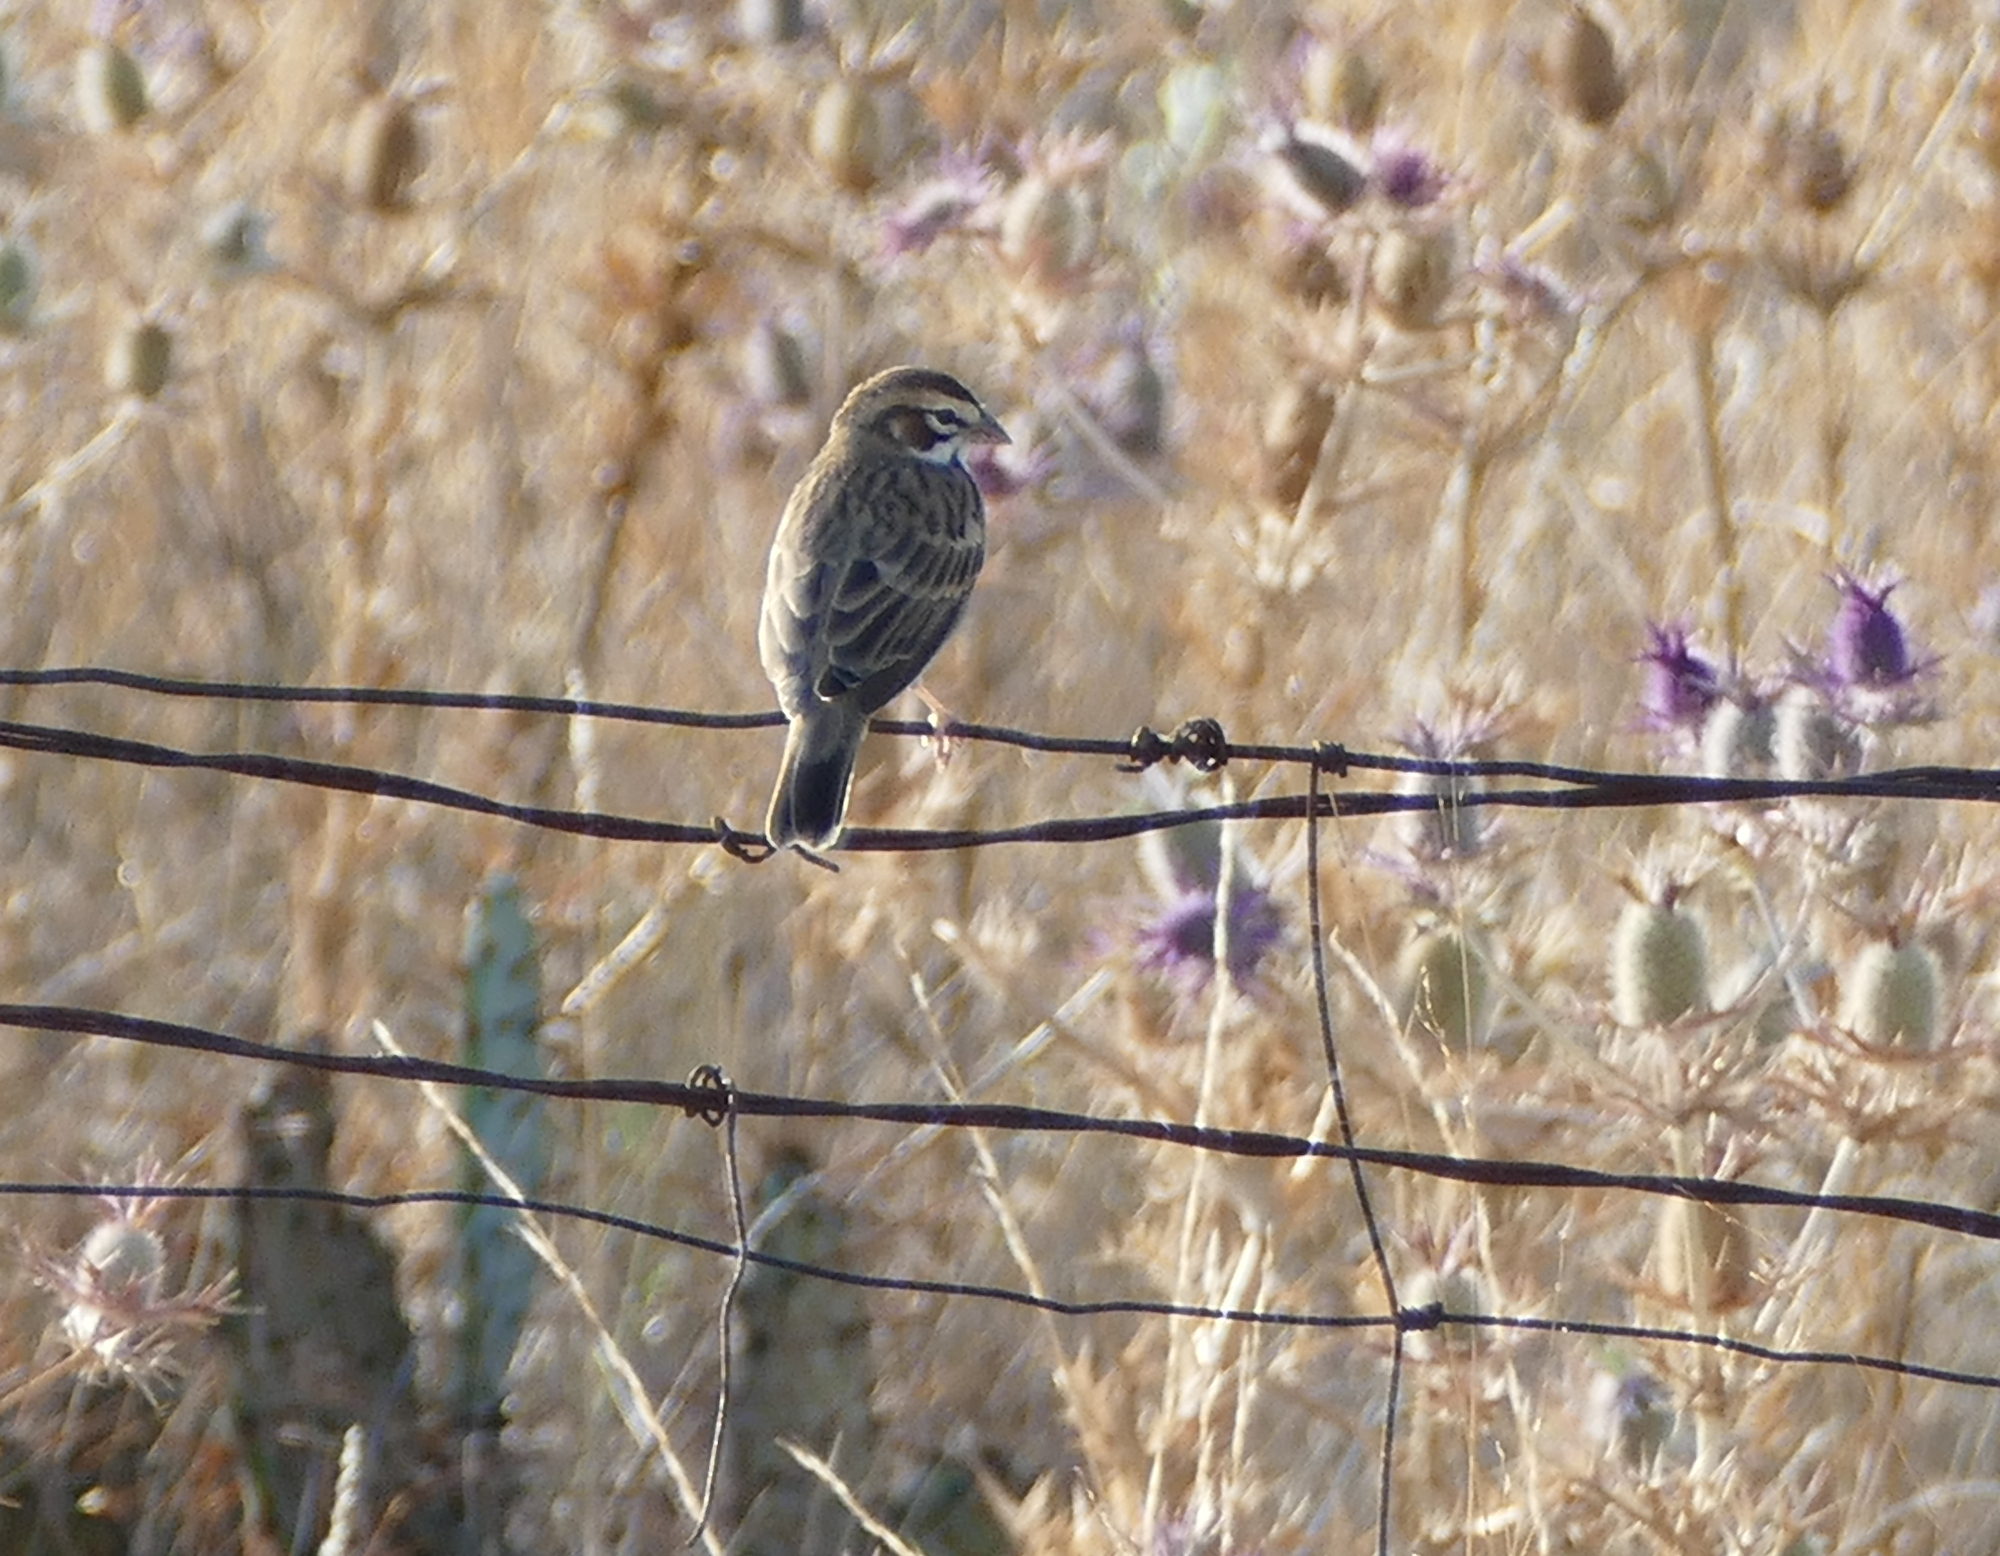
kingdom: Animalia
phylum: Chordata
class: Aves
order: Passeriformes
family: Passerellidae
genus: Chondestes
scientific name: Chondestes grammacus
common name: Lark sparrow
